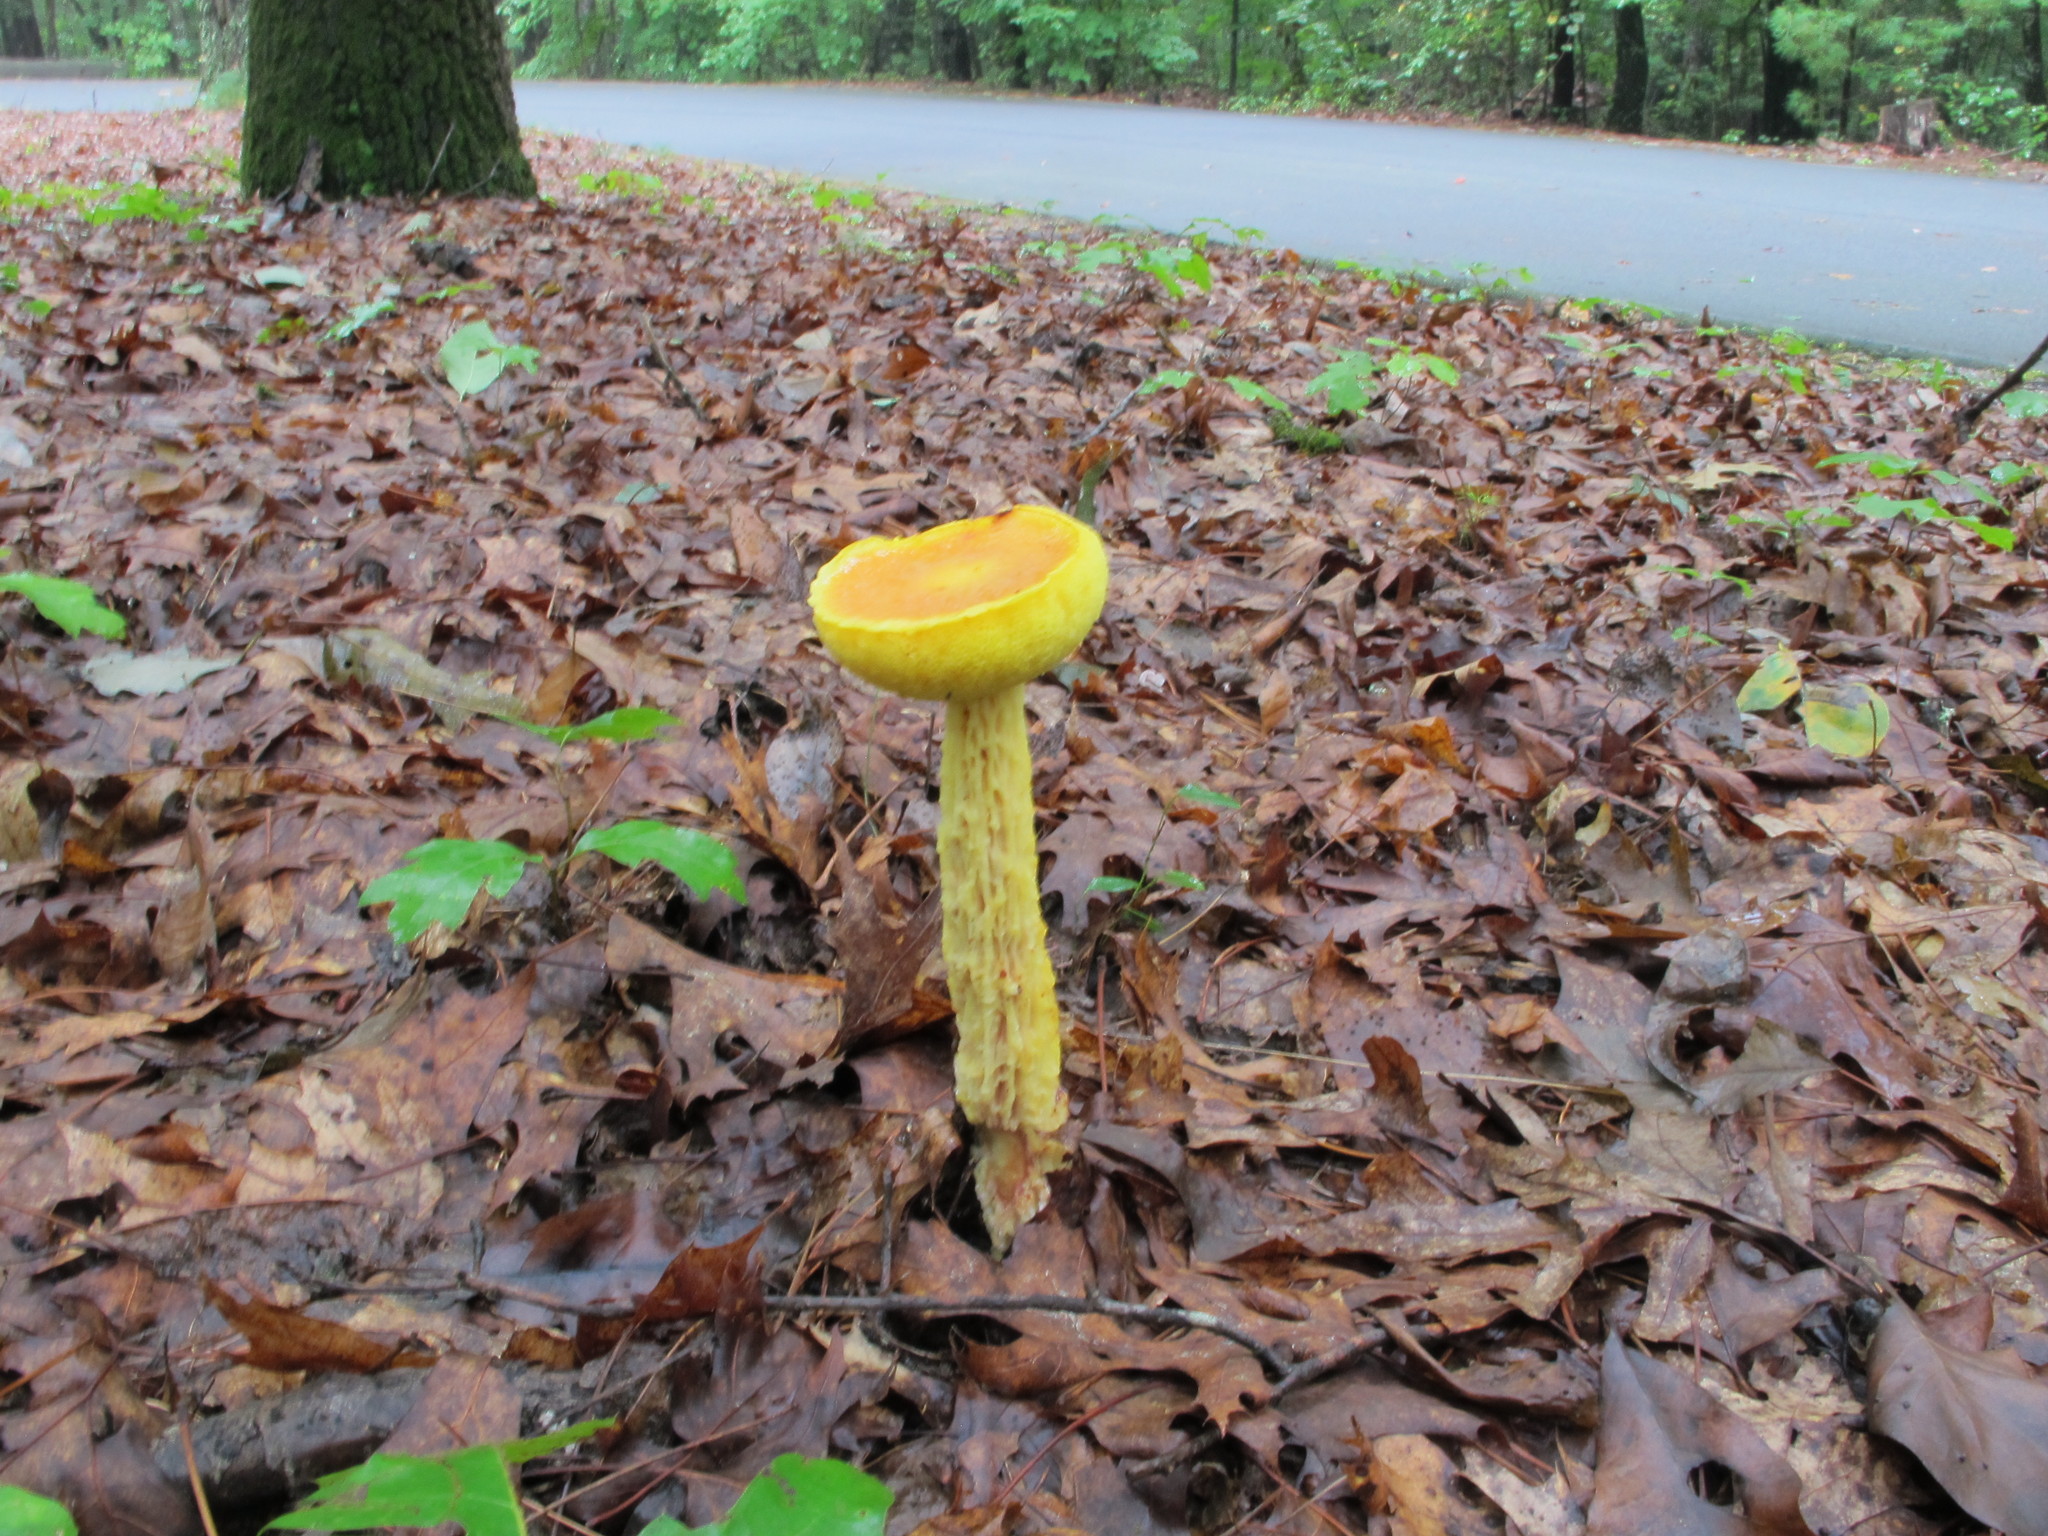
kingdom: Fungi
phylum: Basidiomycota
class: Agaricomycetes
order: Boletales
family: Boletaceae
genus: Aureoboletus
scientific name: Aureoboletus betula
